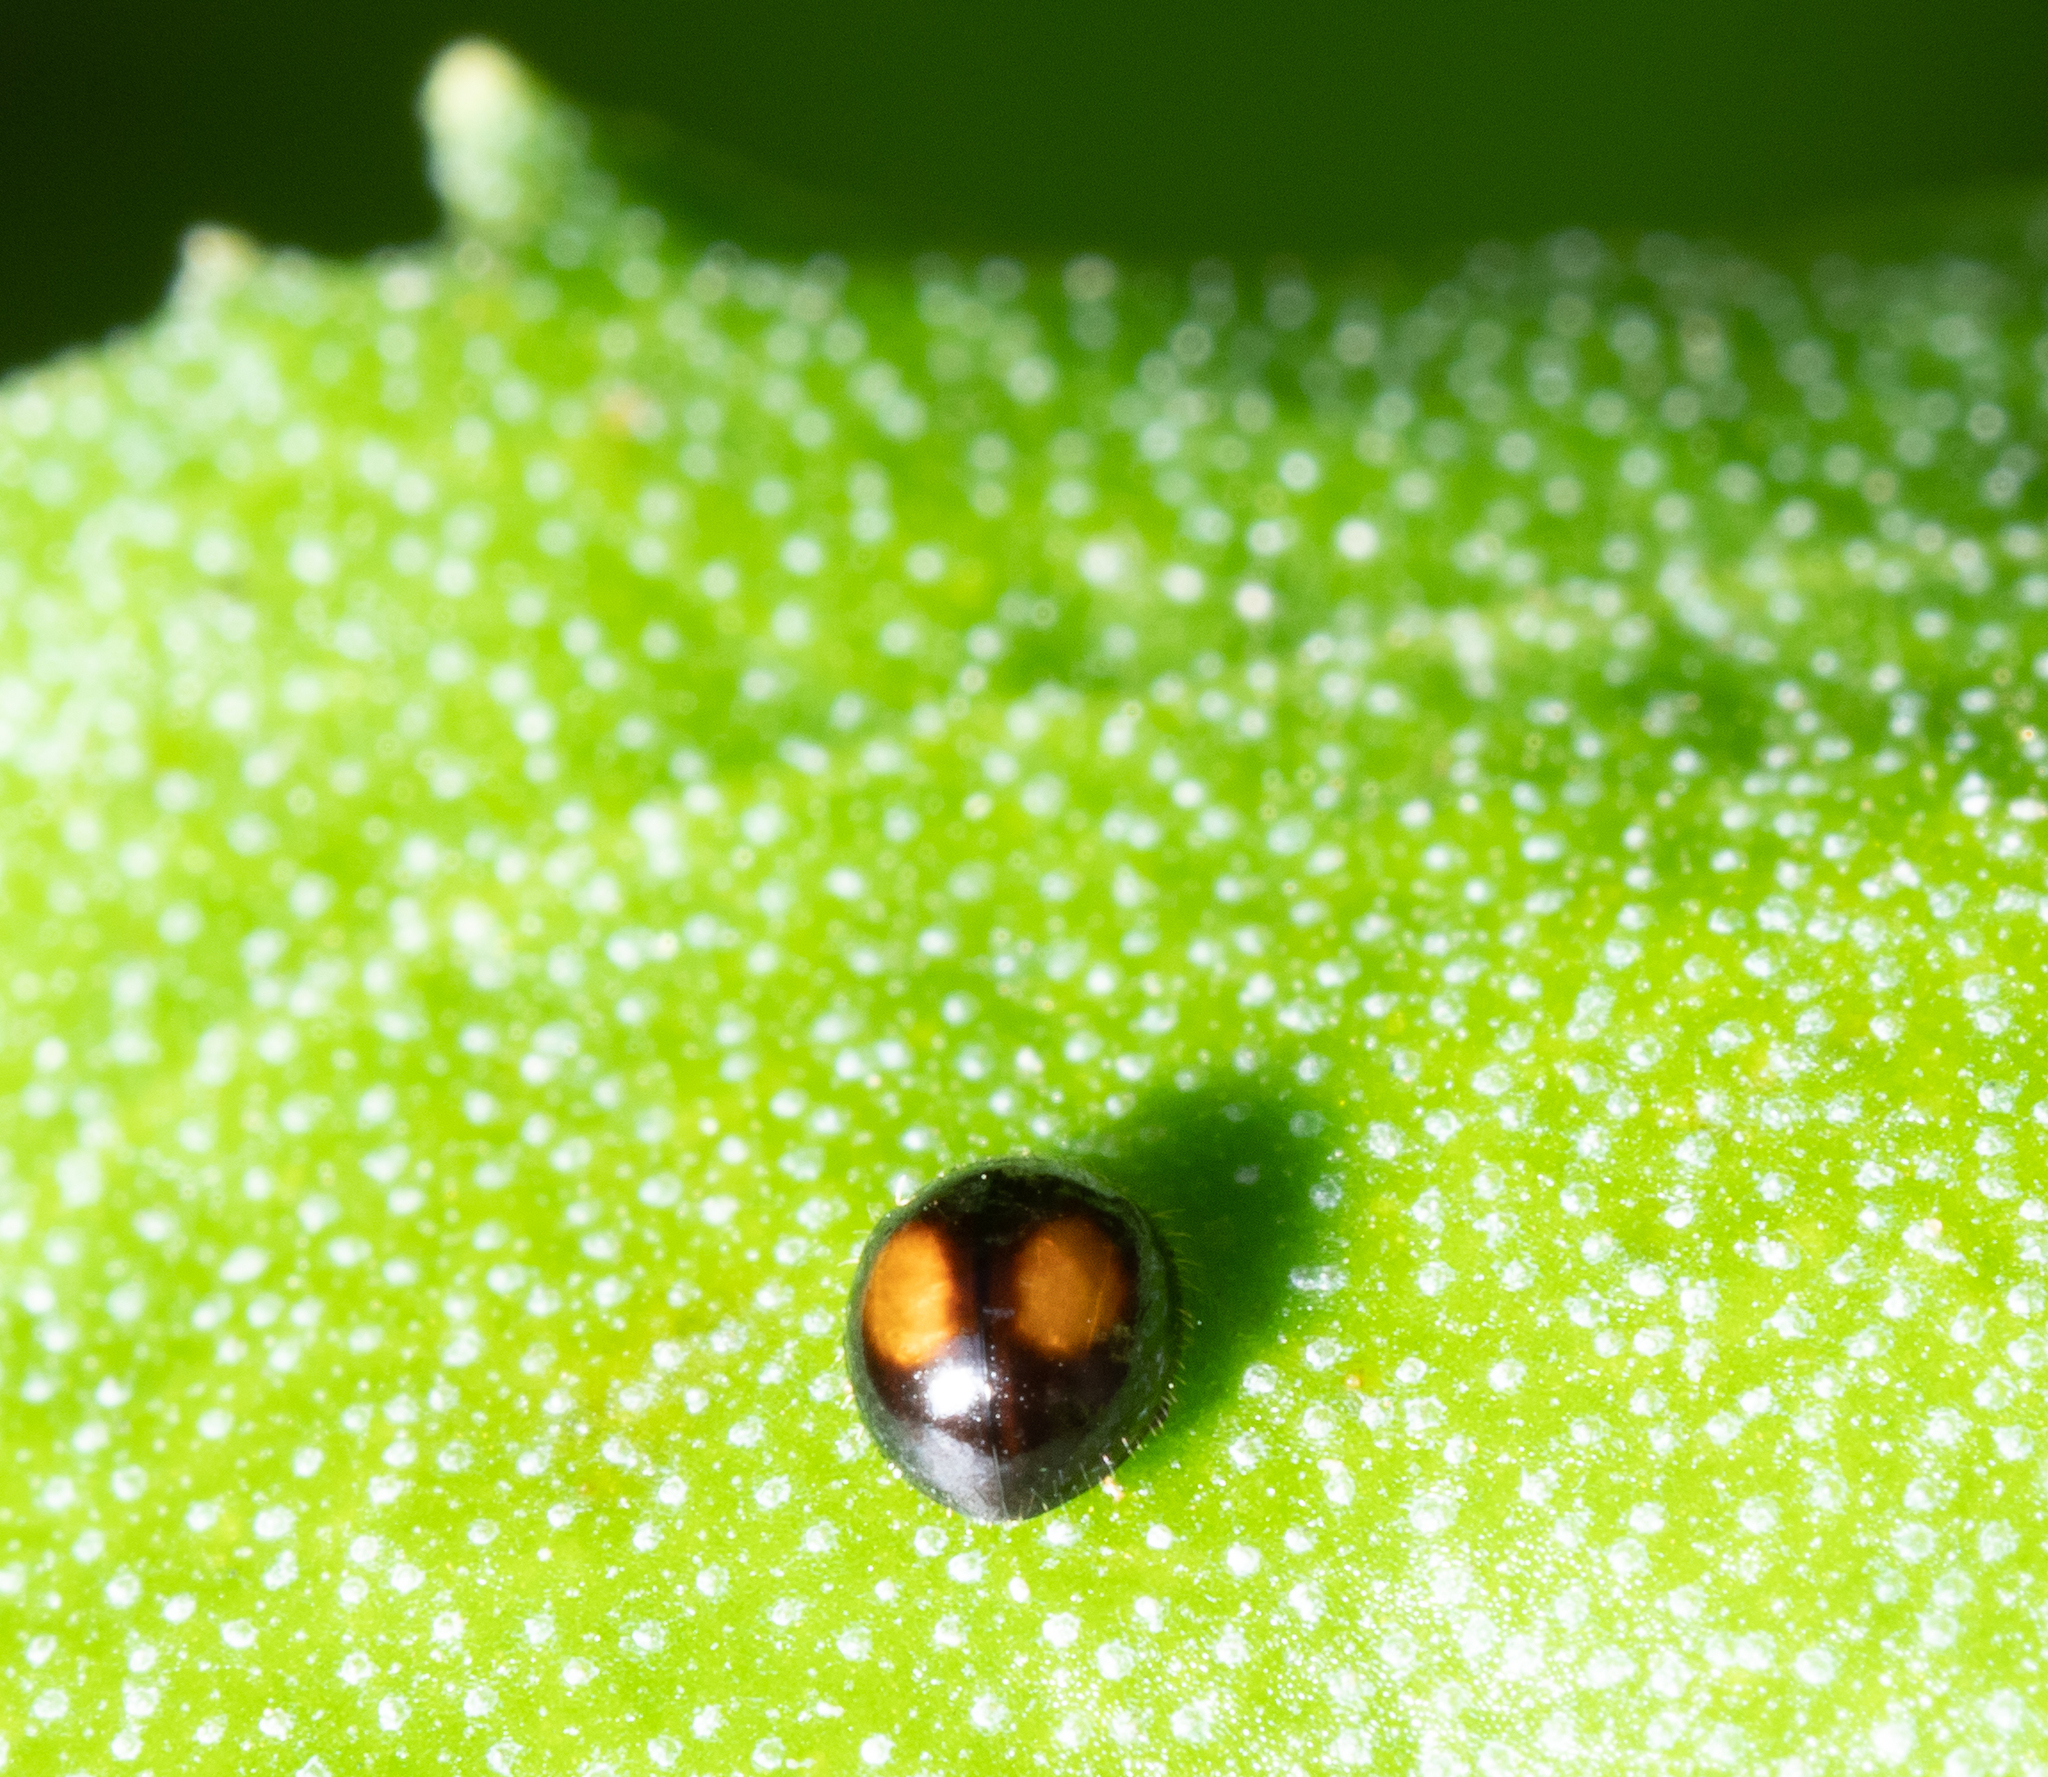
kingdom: Animalia
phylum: Arthropoda
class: Insecta
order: Coleoptera
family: Coccinellidae
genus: Serangium
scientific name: Serangium maculigerum
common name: Lady beetle
